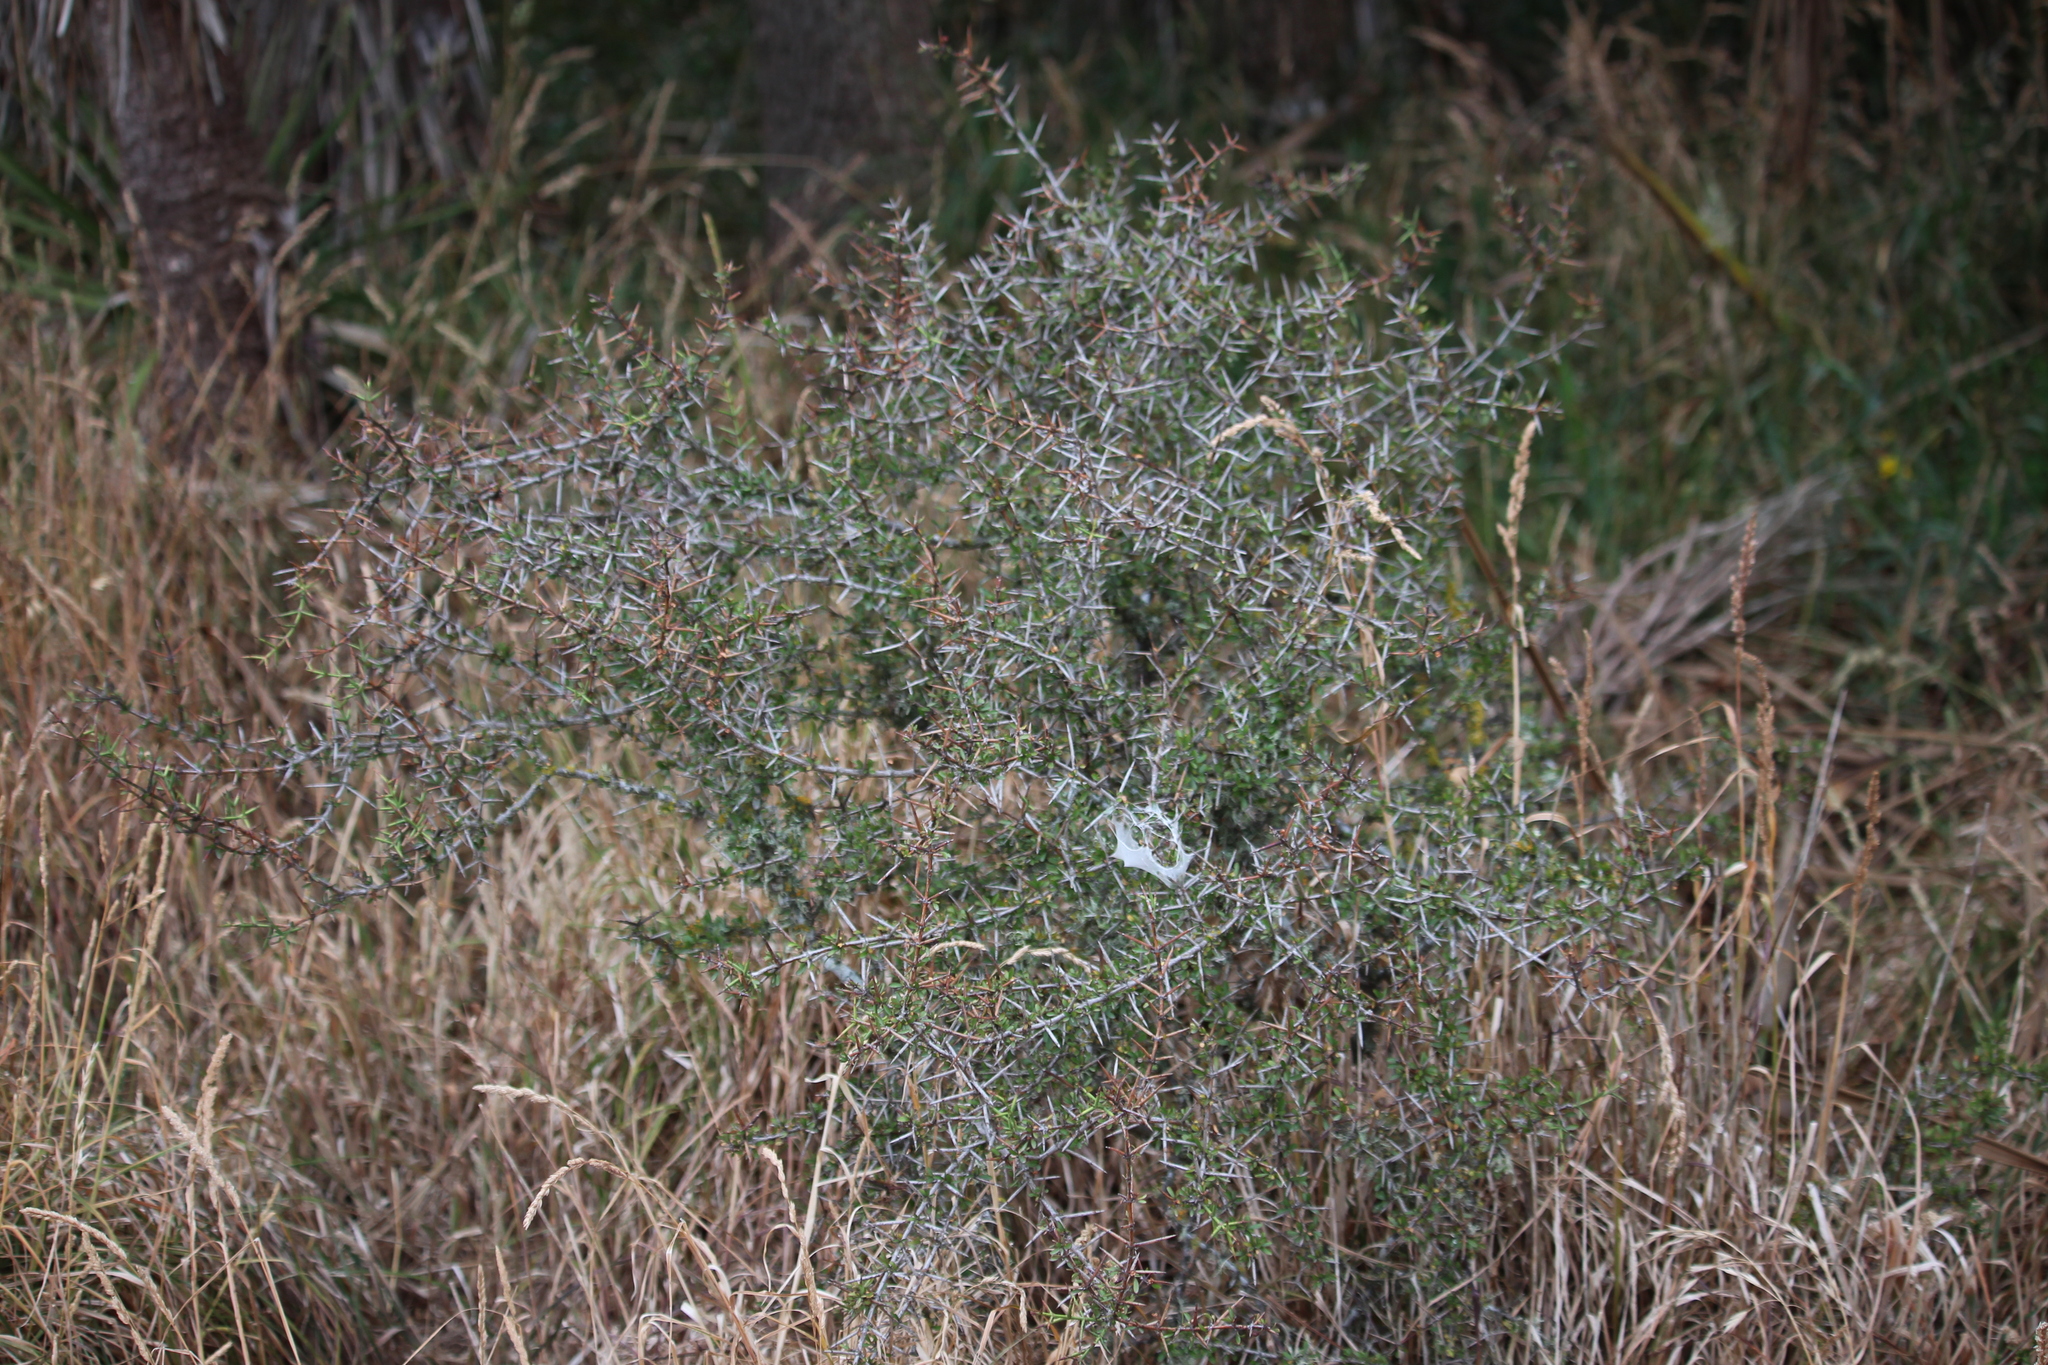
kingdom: Plantae
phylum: Tracheophyta
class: Magnoliopsida
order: Rosales
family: Rhamnaceae
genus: Discaria
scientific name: Discaria toumatou
